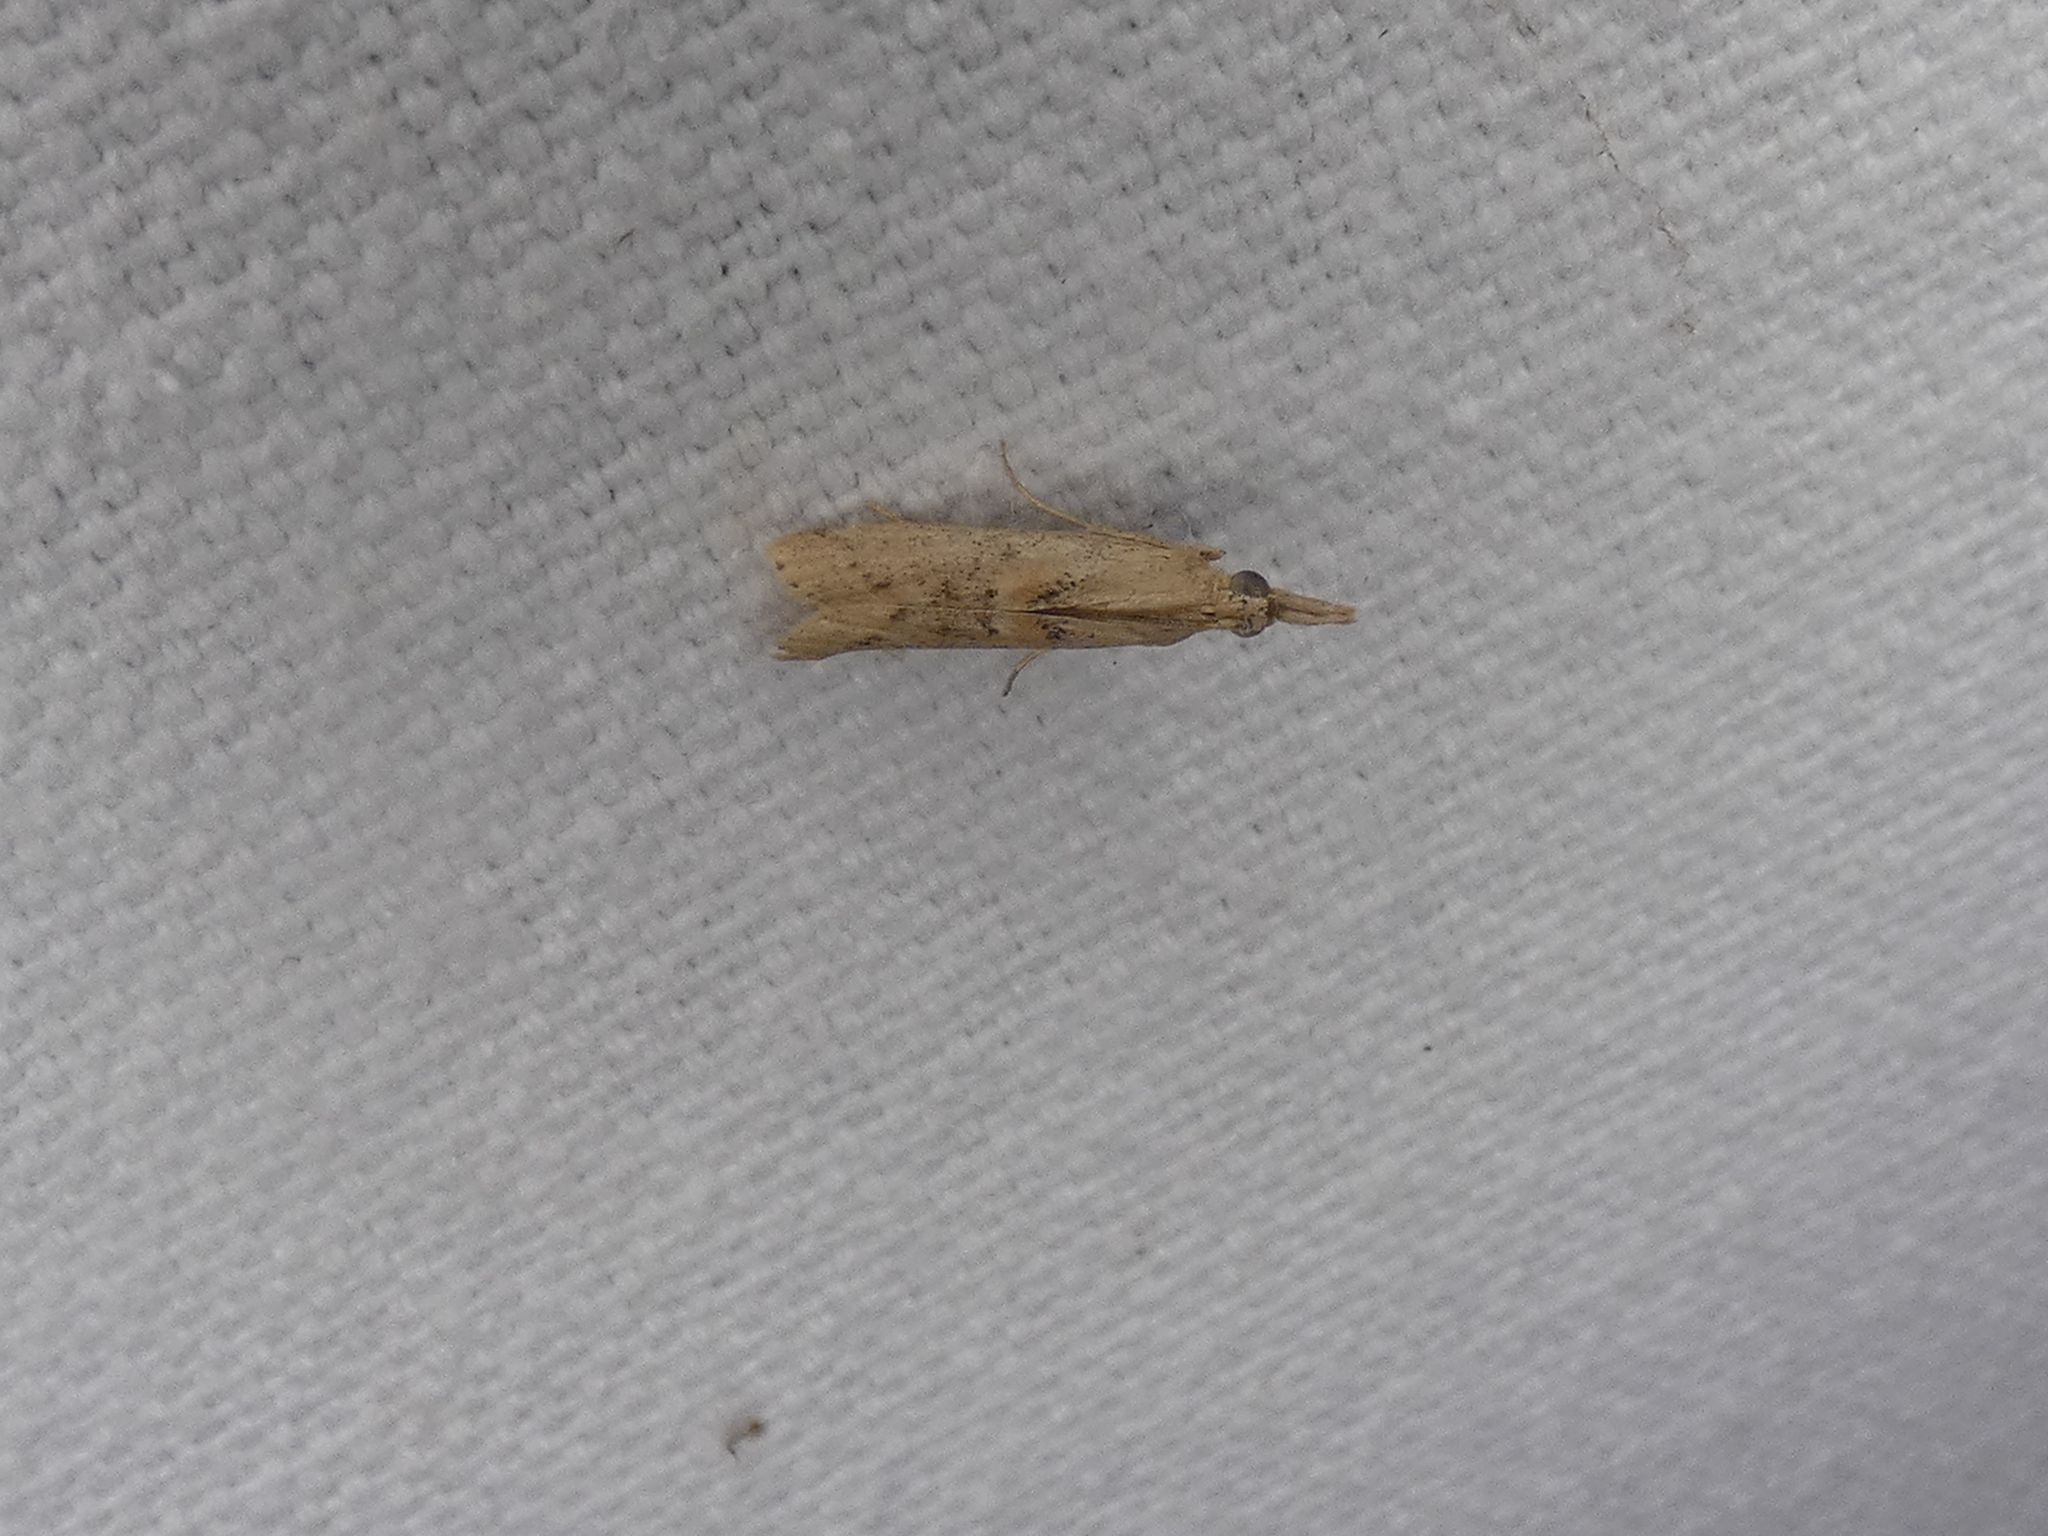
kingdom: Animalia
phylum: Arthropoda
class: Insecta
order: Lepidoptera
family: Pyralidae
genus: Macrorrhinia
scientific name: Macrorrhinia endonephele
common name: Alligator weed stemborer moth
